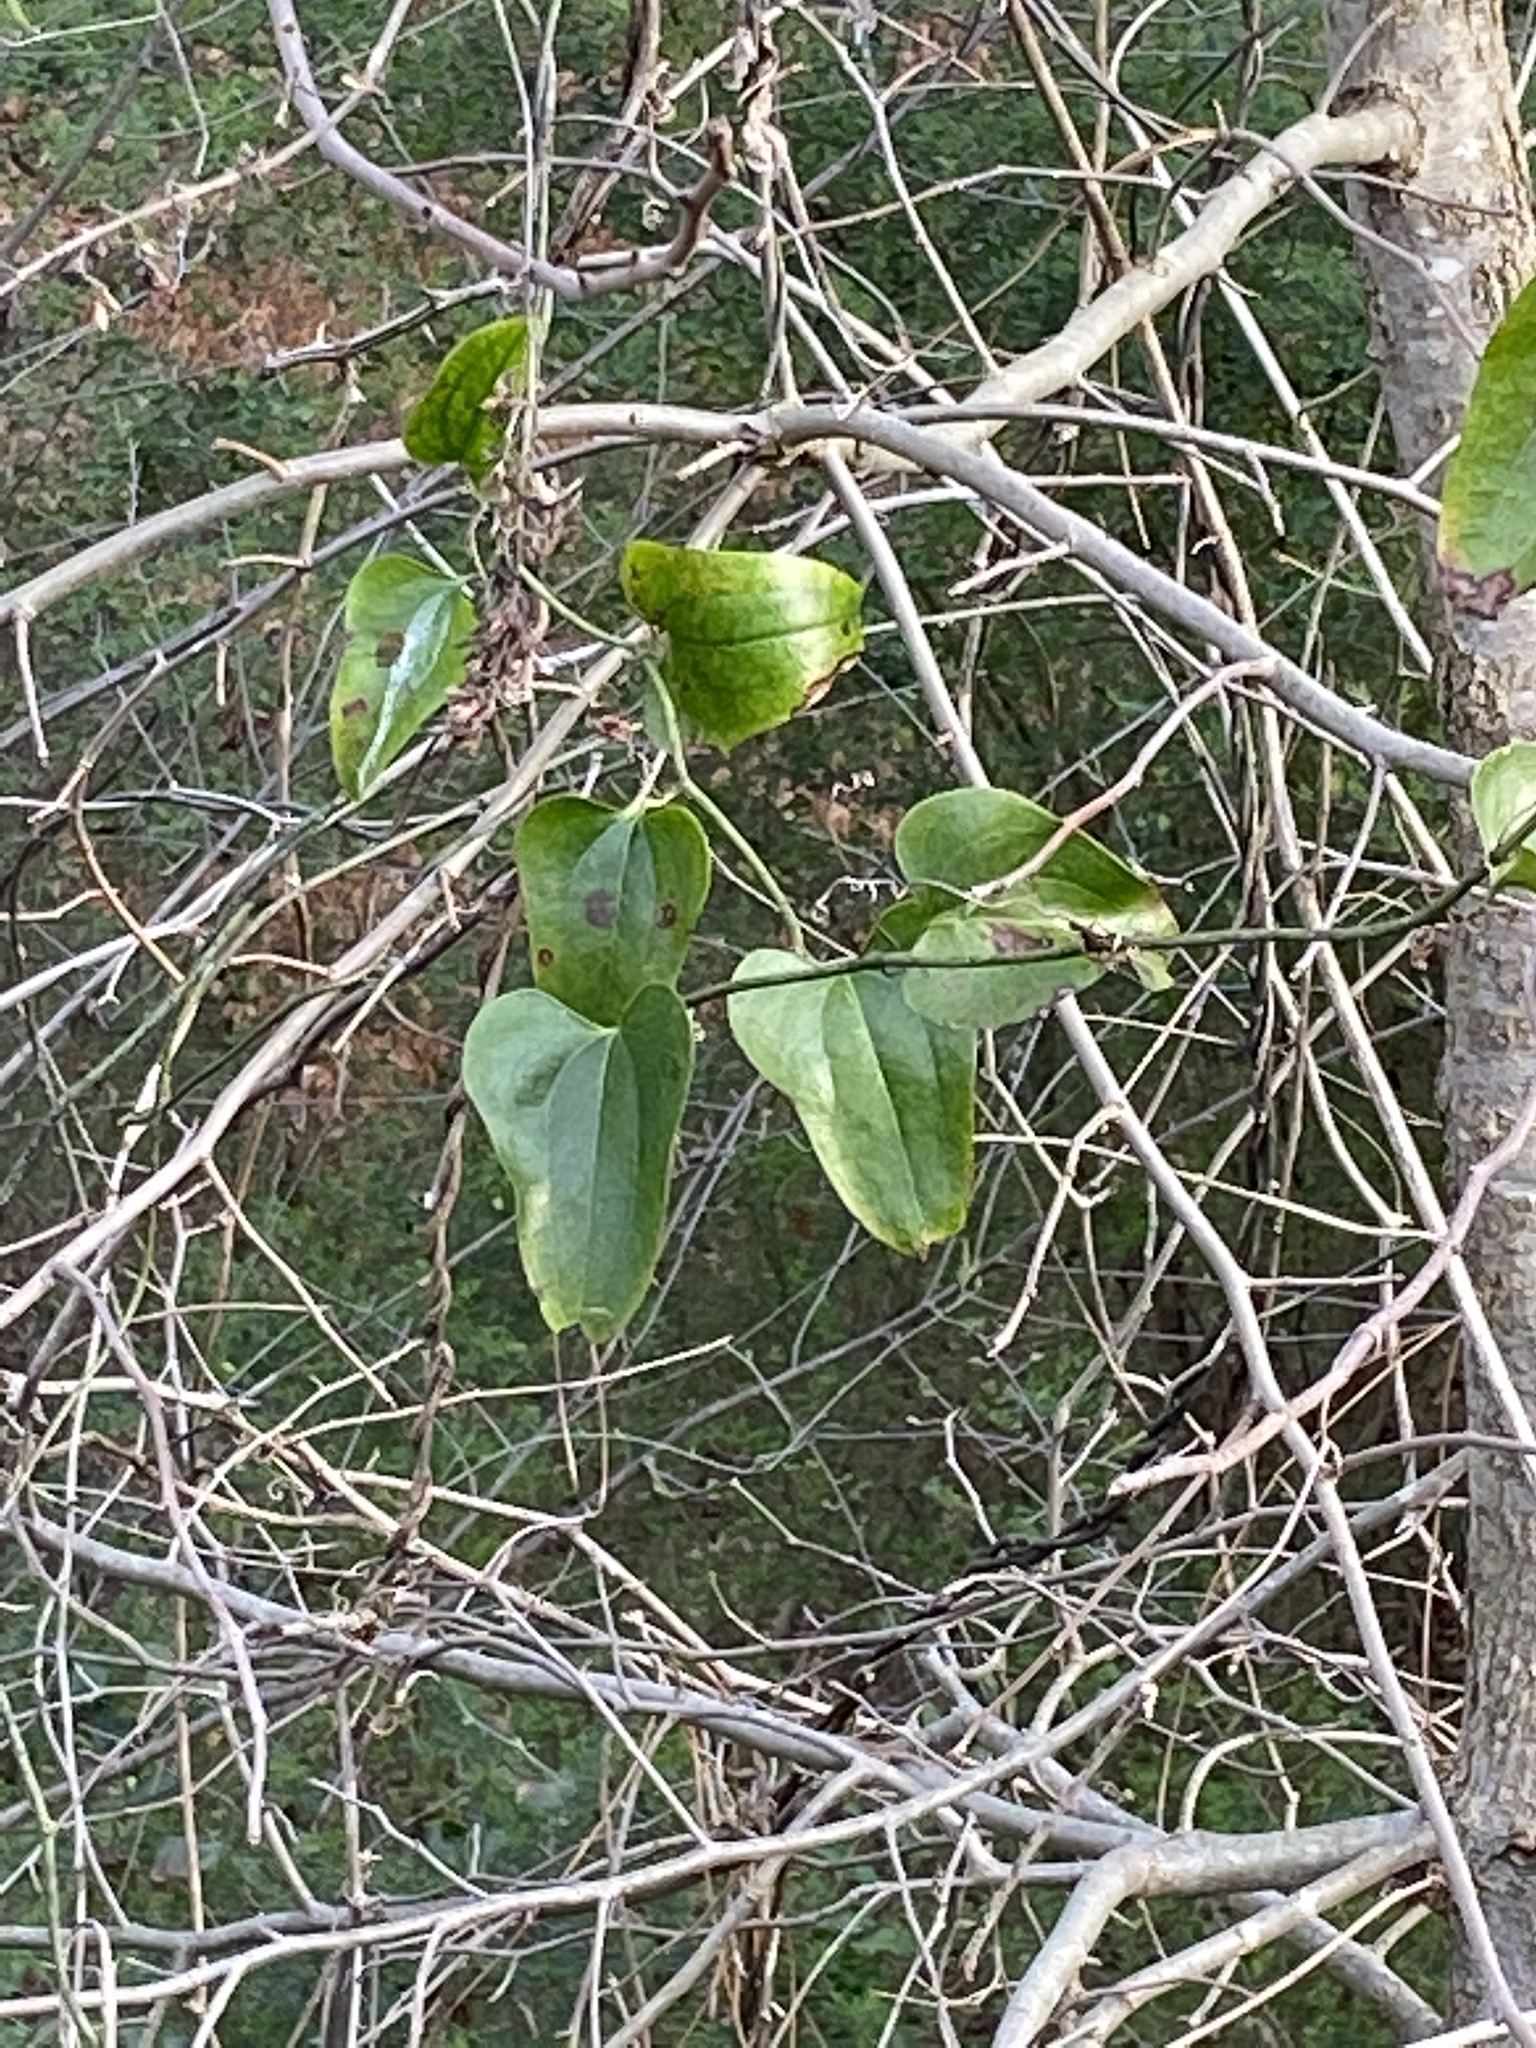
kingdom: Plantae
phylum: Tracheophyta
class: Liliopsida
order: Liliales
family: Smilacaceae
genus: Smilax
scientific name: Smilax bona-nox
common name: Catbrier
